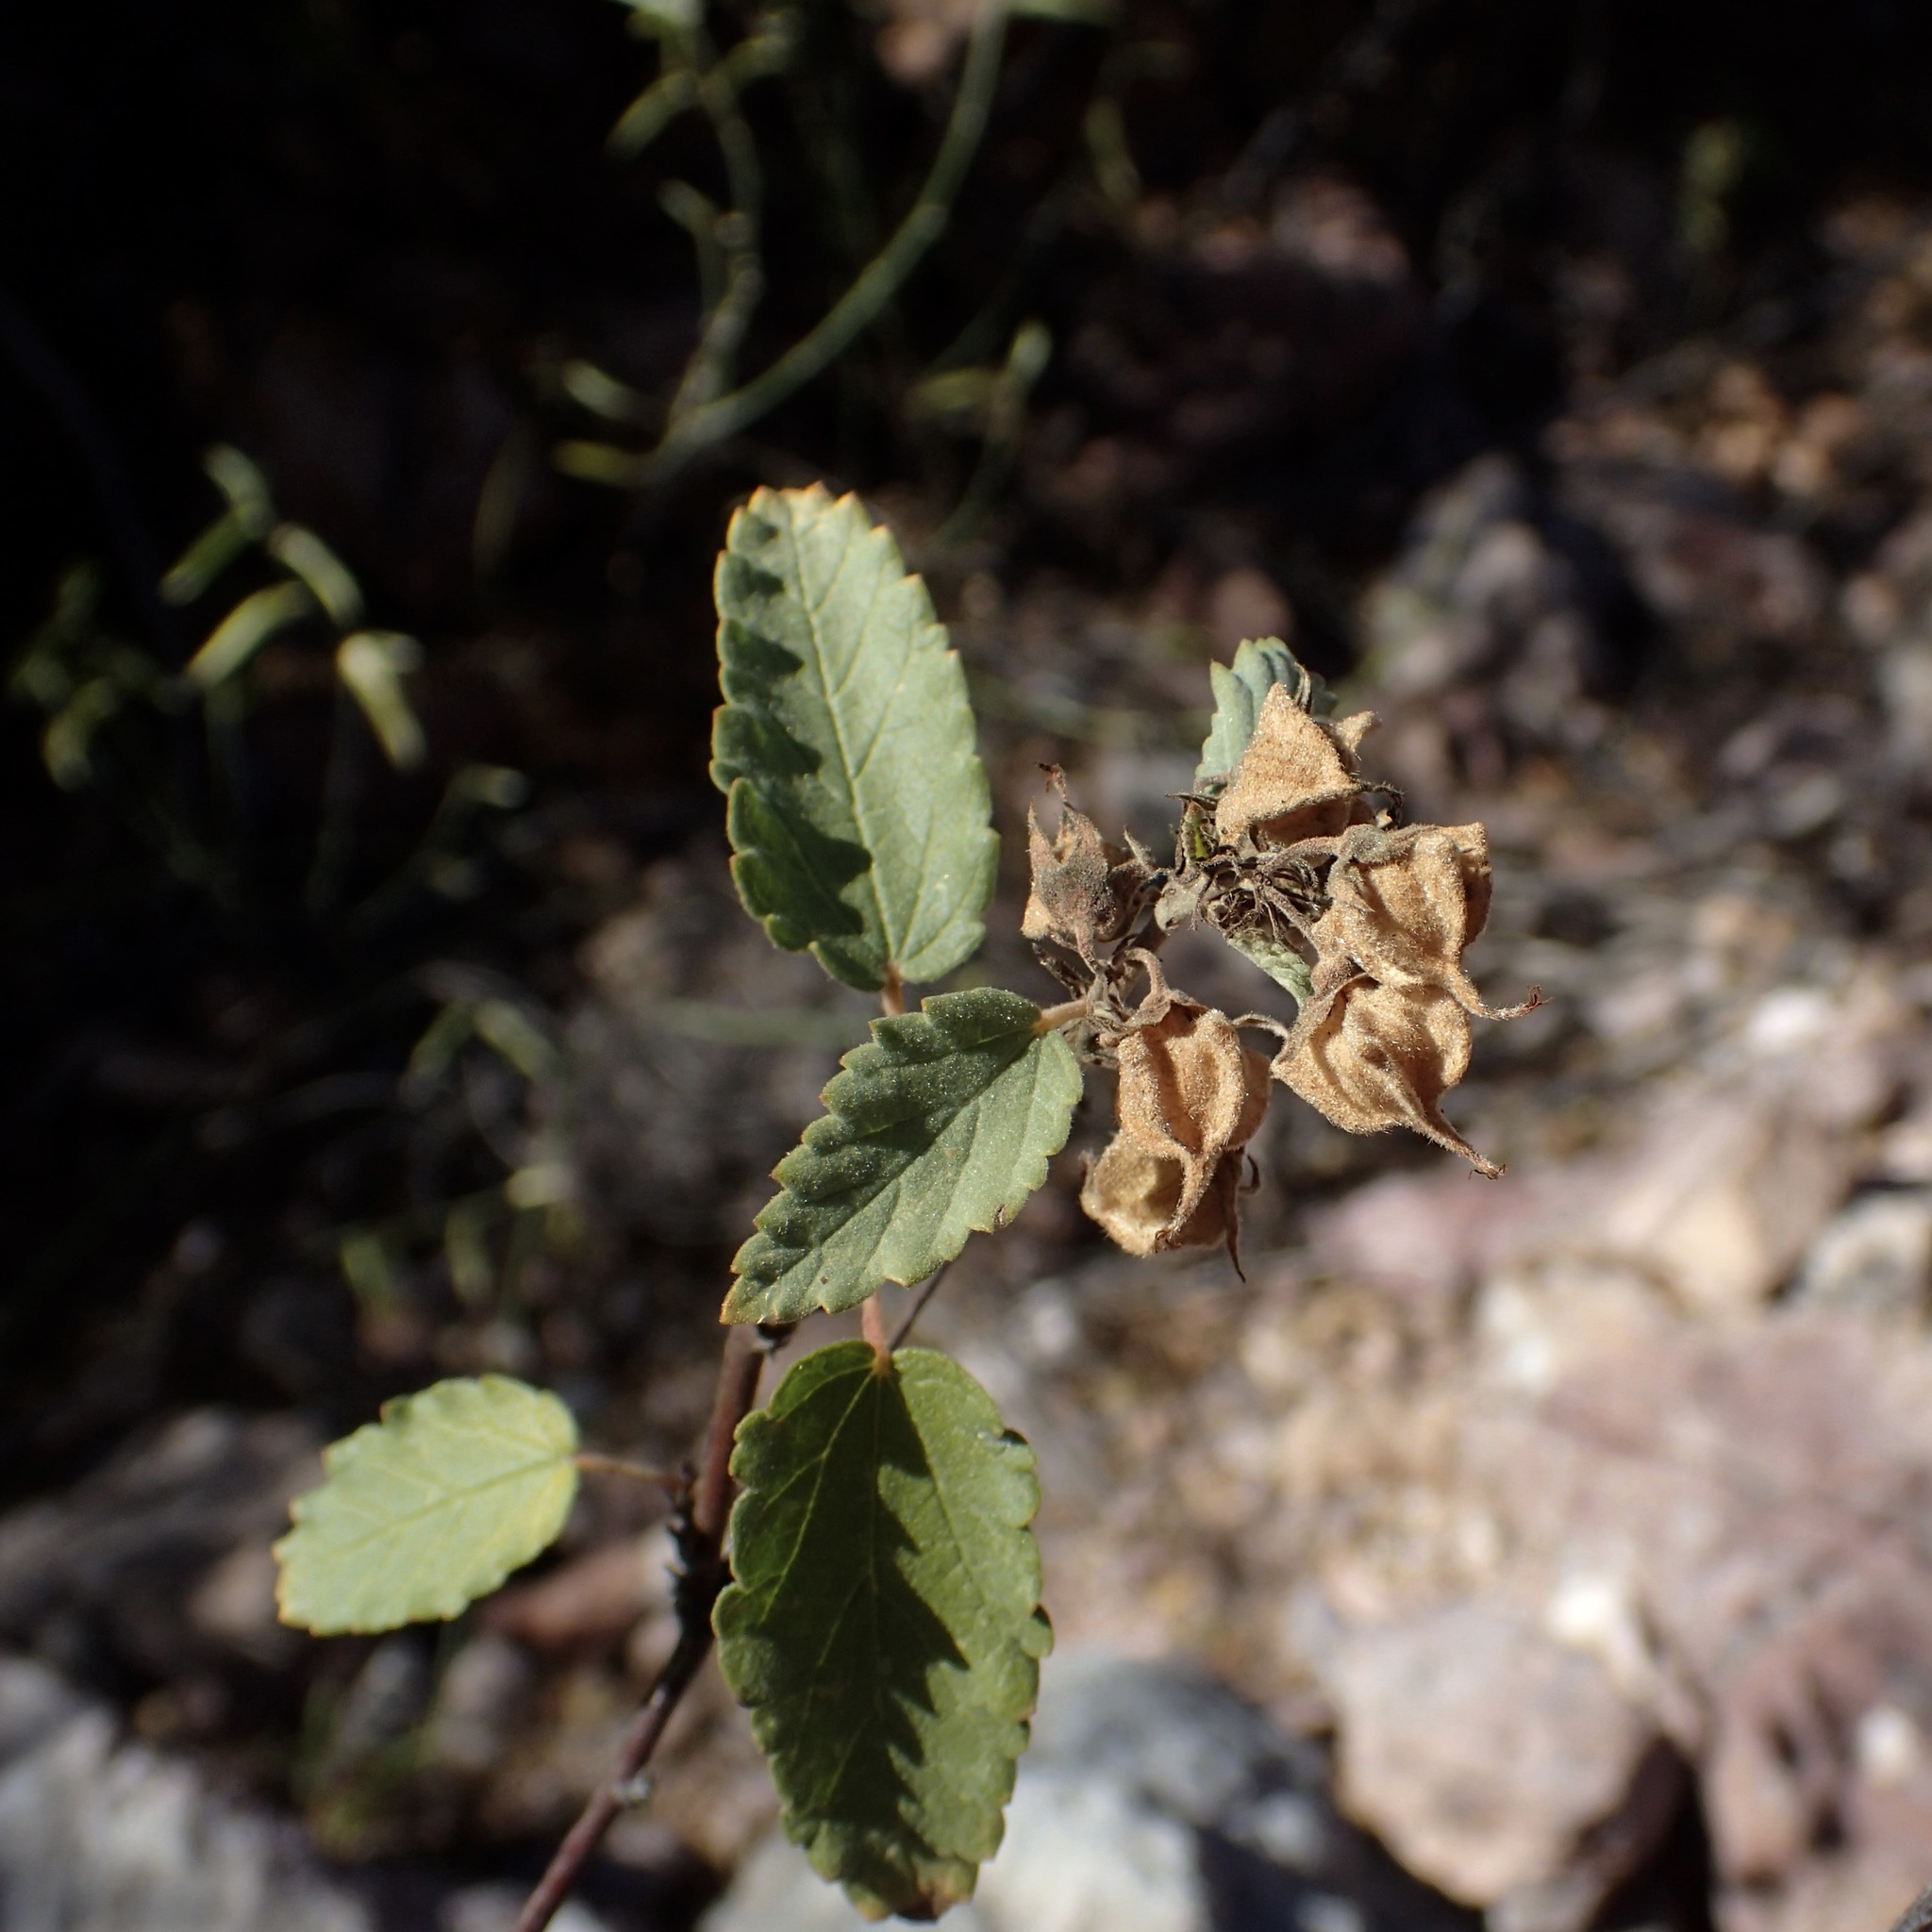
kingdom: Plantae
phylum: Tracheophyta
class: Magnoliopsida
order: Malvales
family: Malvaceae
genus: Melochia
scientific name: Melochia tomentosa
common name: Black torch
